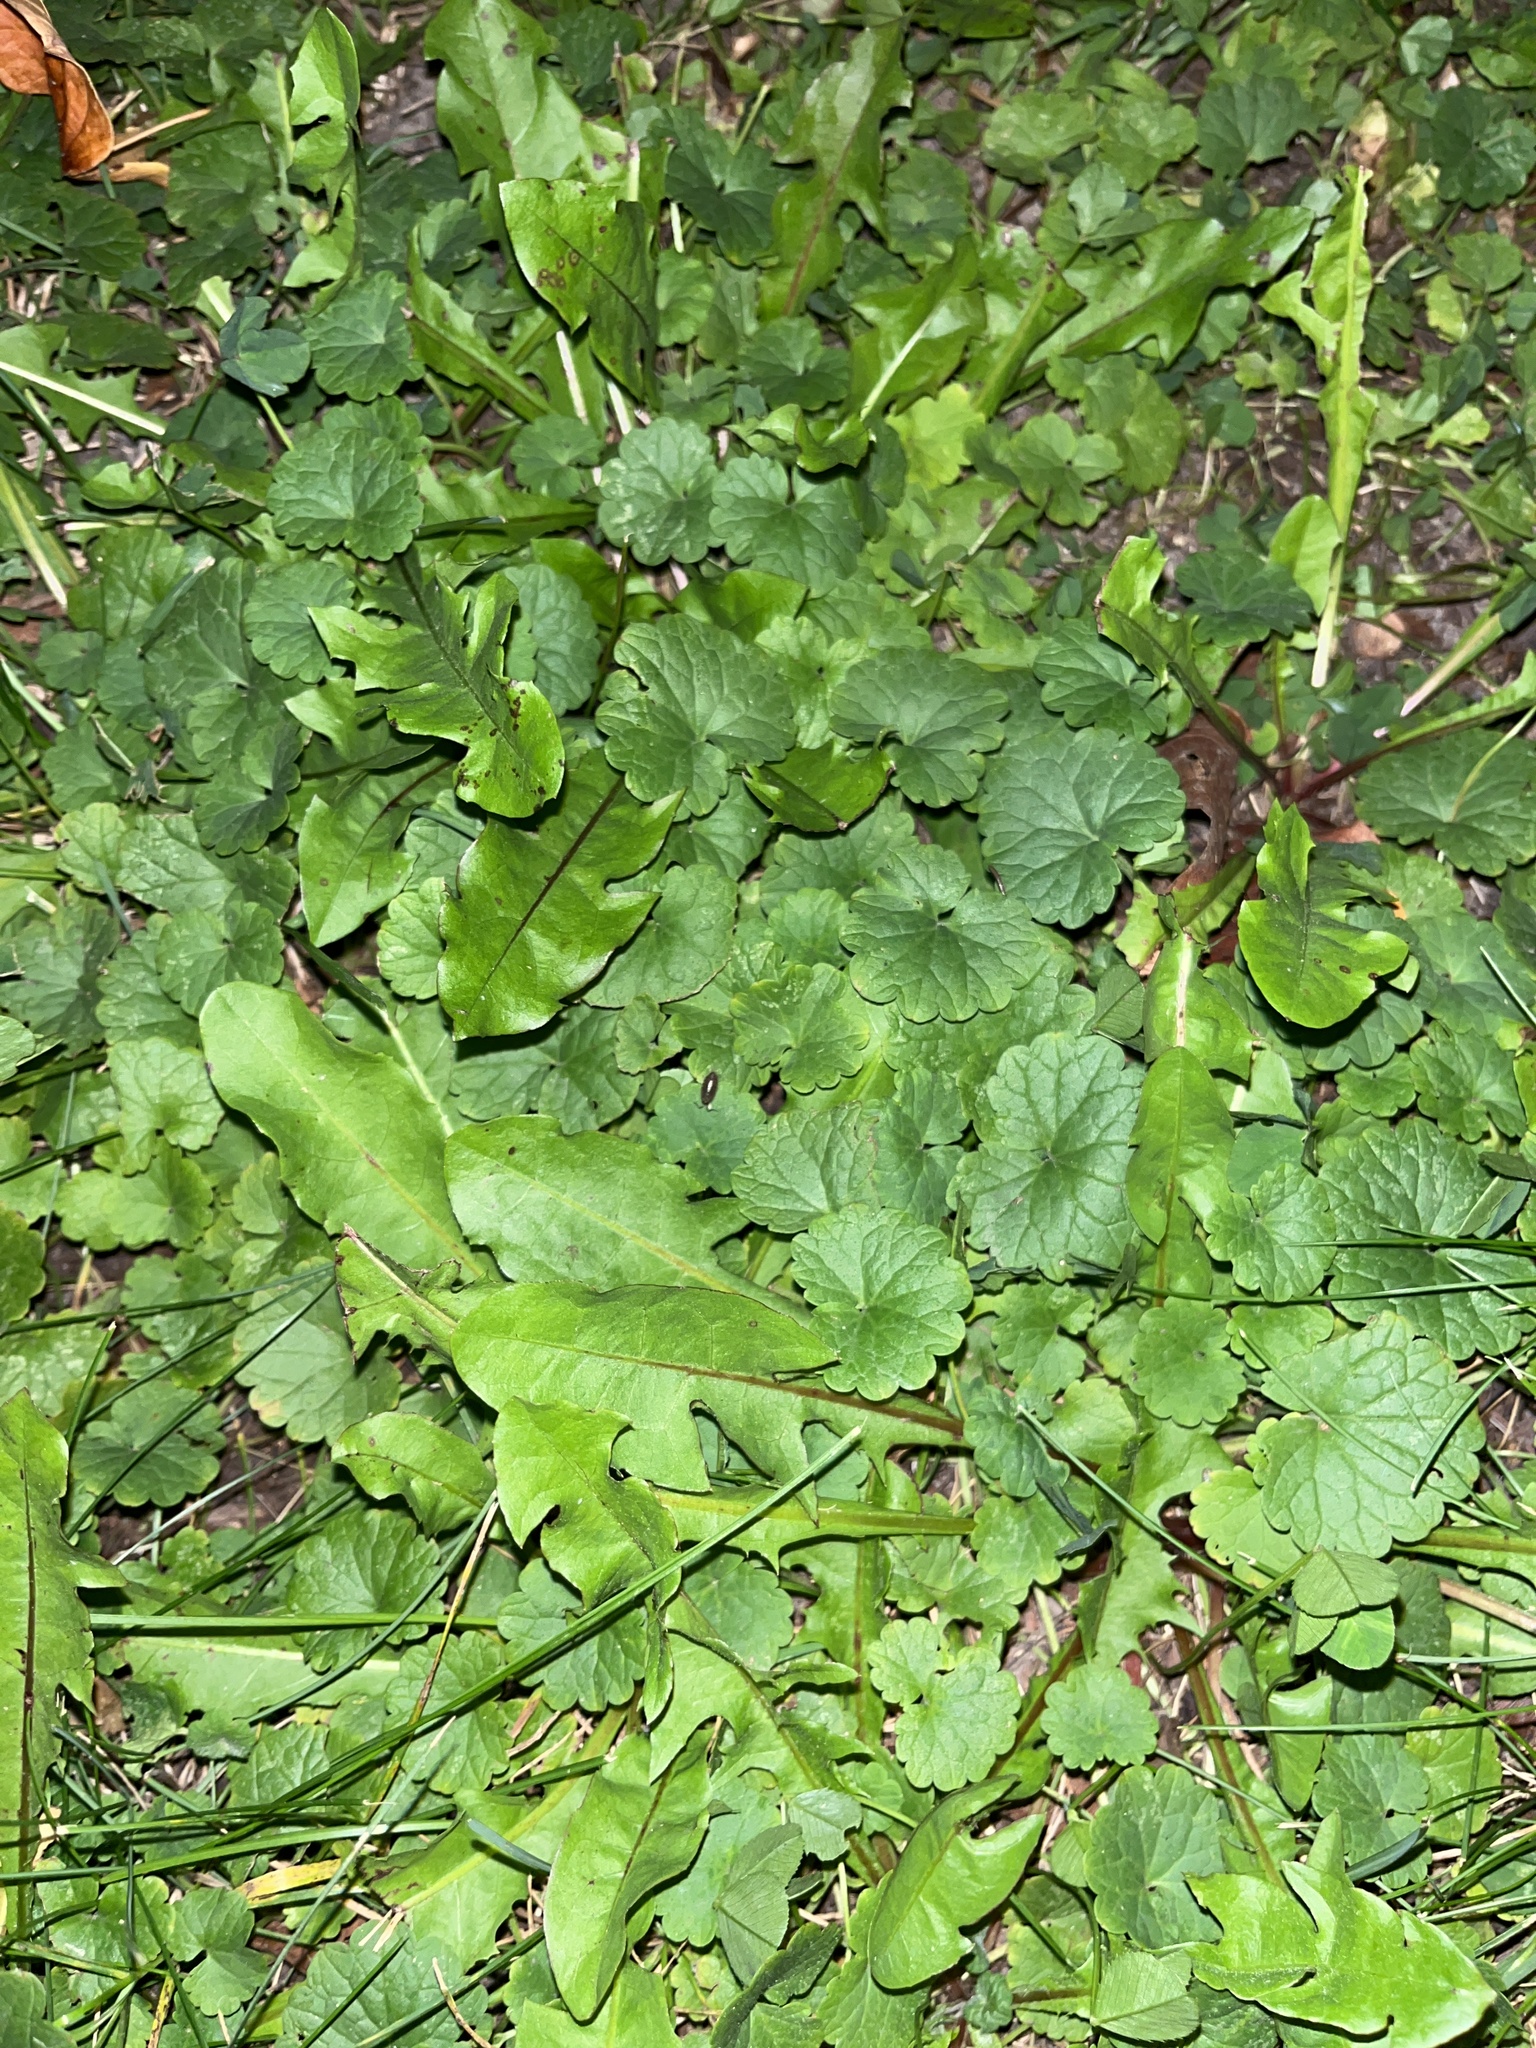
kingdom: Plantae
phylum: Tracheophyta
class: Magnoliopsida
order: Lamiales
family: Lamiaceae
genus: Glechoma
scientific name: Glechoma hederacea
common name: Ground ivy
